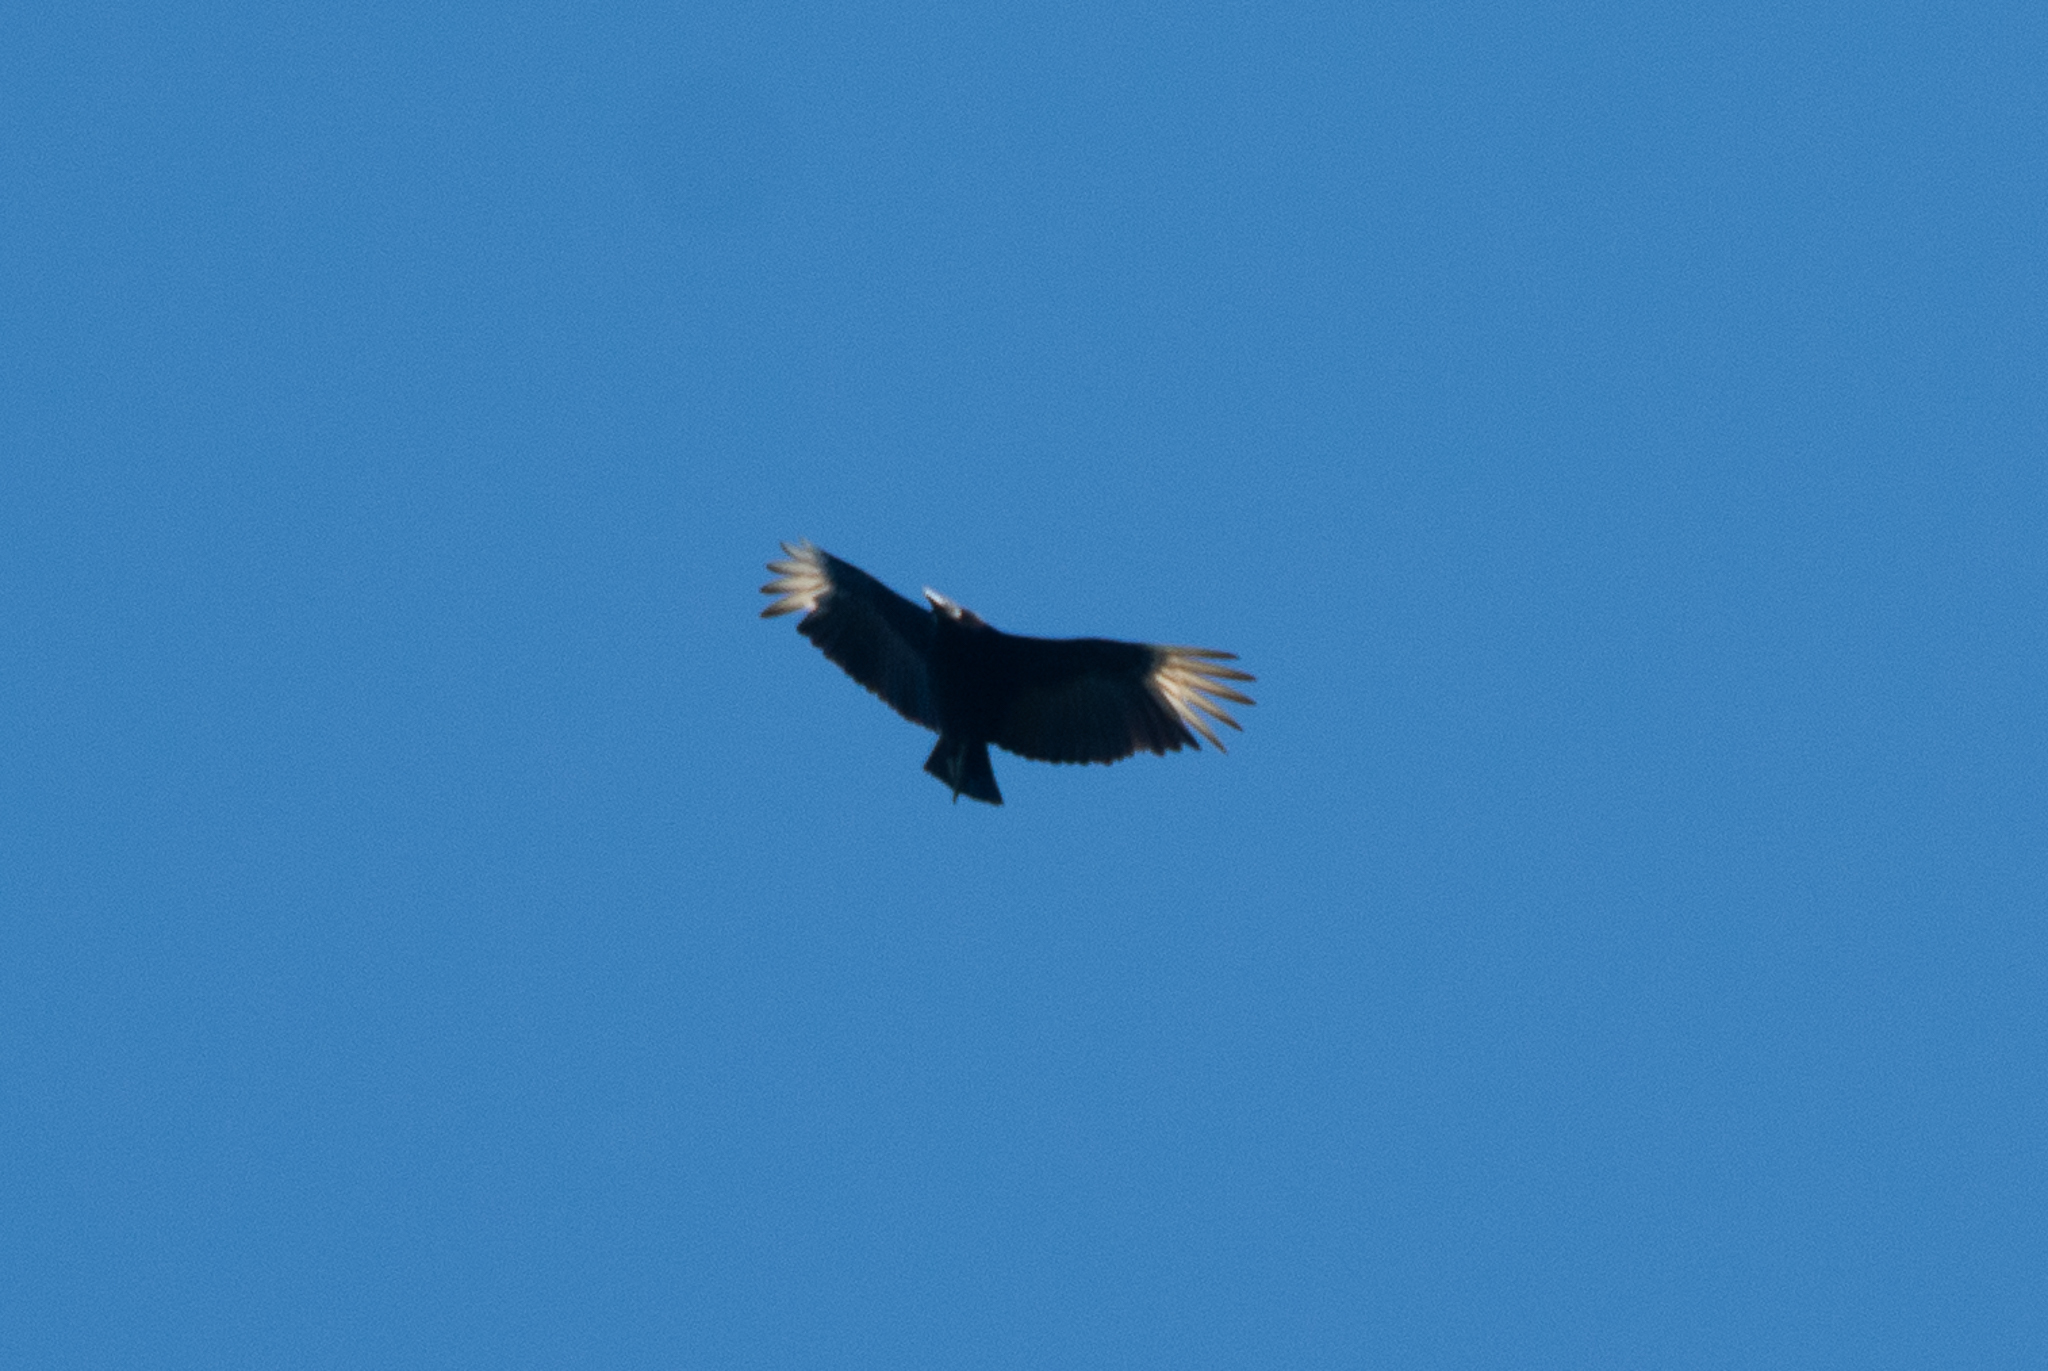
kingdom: Animalia
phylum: Chordata
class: Aves
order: Accipitriformes
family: Cathartidae
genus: Coragyps
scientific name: Coragyps atratus
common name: Black vulture
